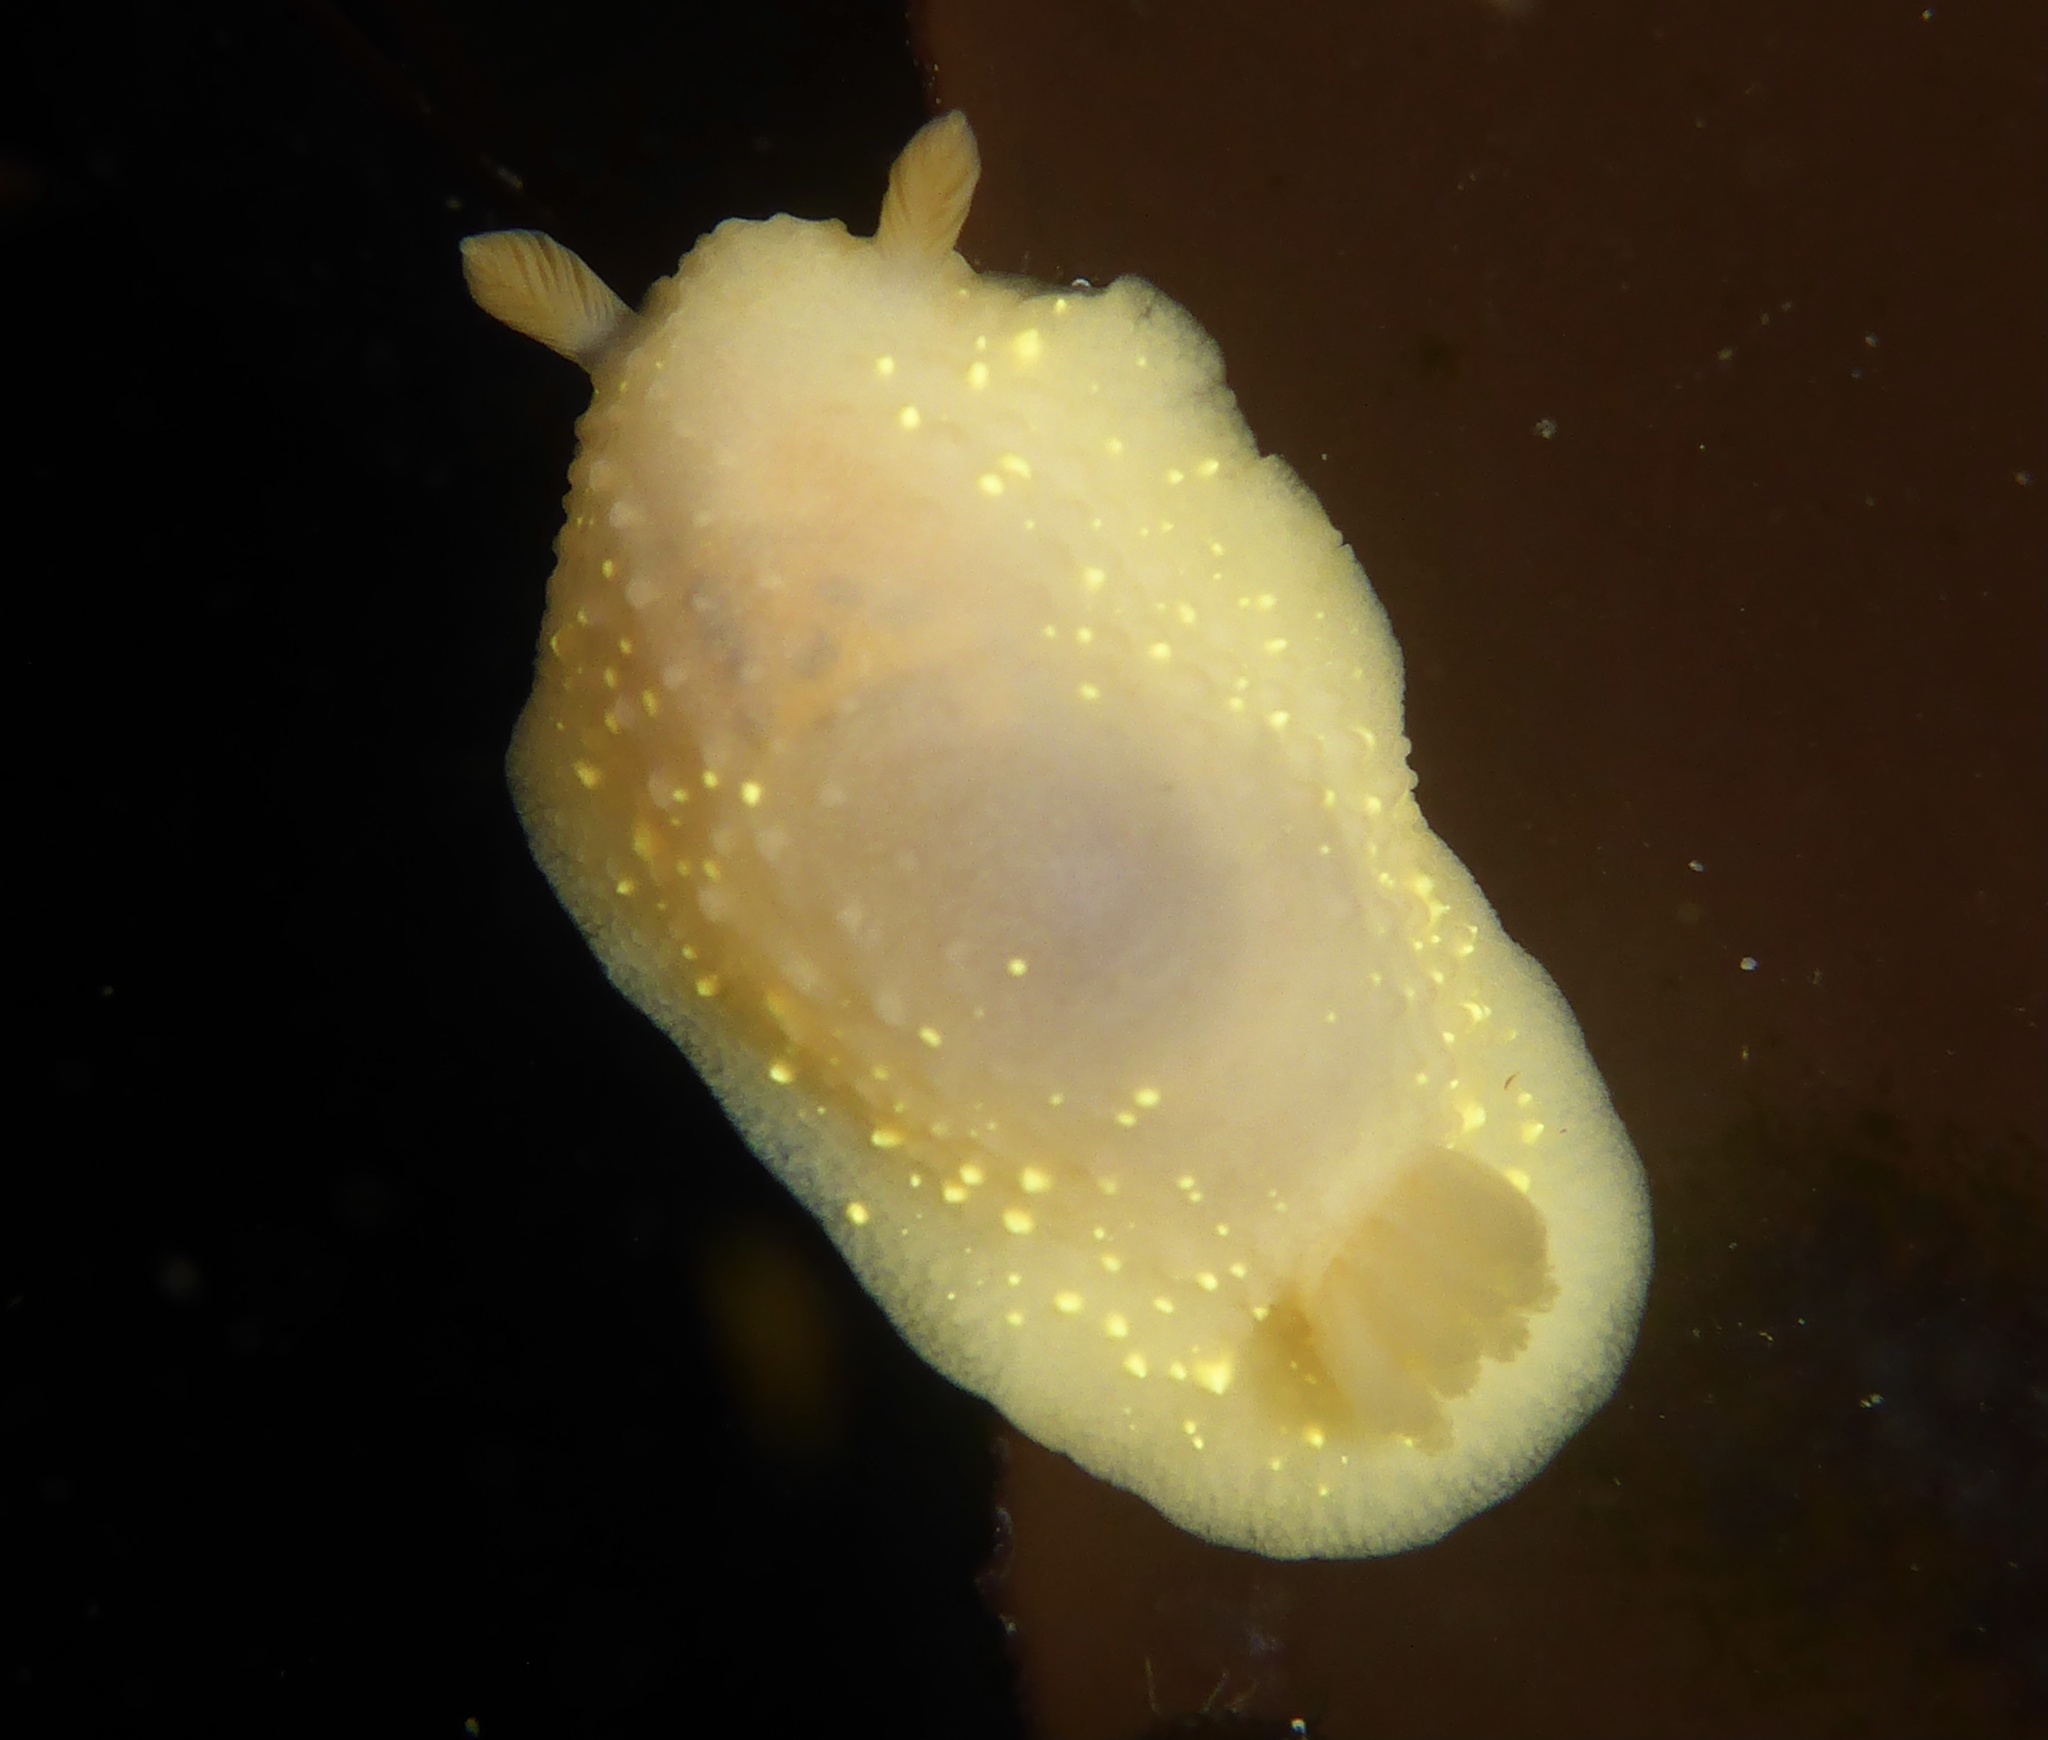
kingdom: Animalia
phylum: Mollusca
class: Gastropoda
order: Nudibranchia
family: Cadlinidae
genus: Cadlina
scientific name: Cadlina modesta
